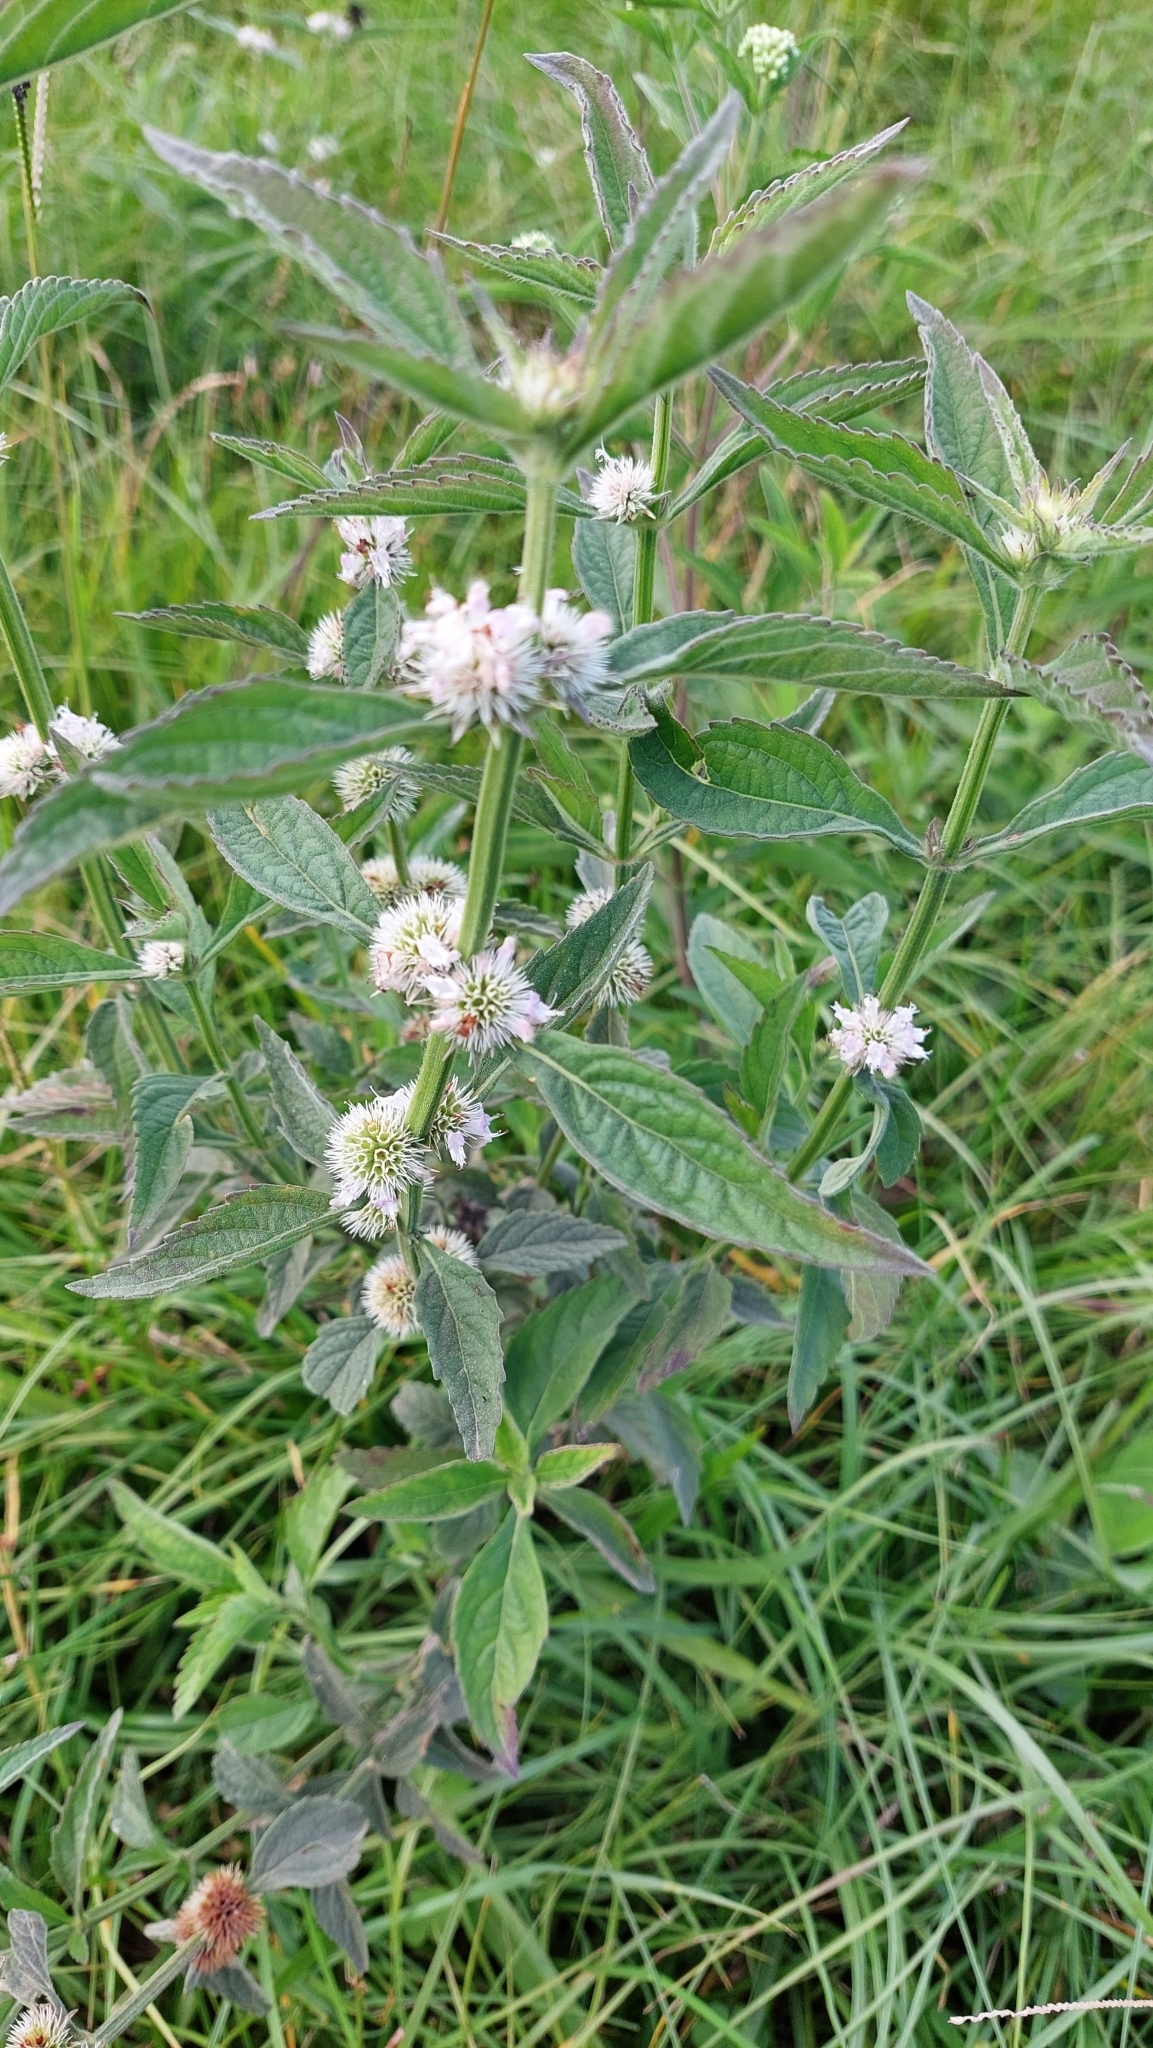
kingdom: Plantae
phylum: Tracheophyta
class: Magnoliopsida
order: Lamiales
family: Lamiaceae
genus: Hyptis
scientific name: Hyptis lappacea
